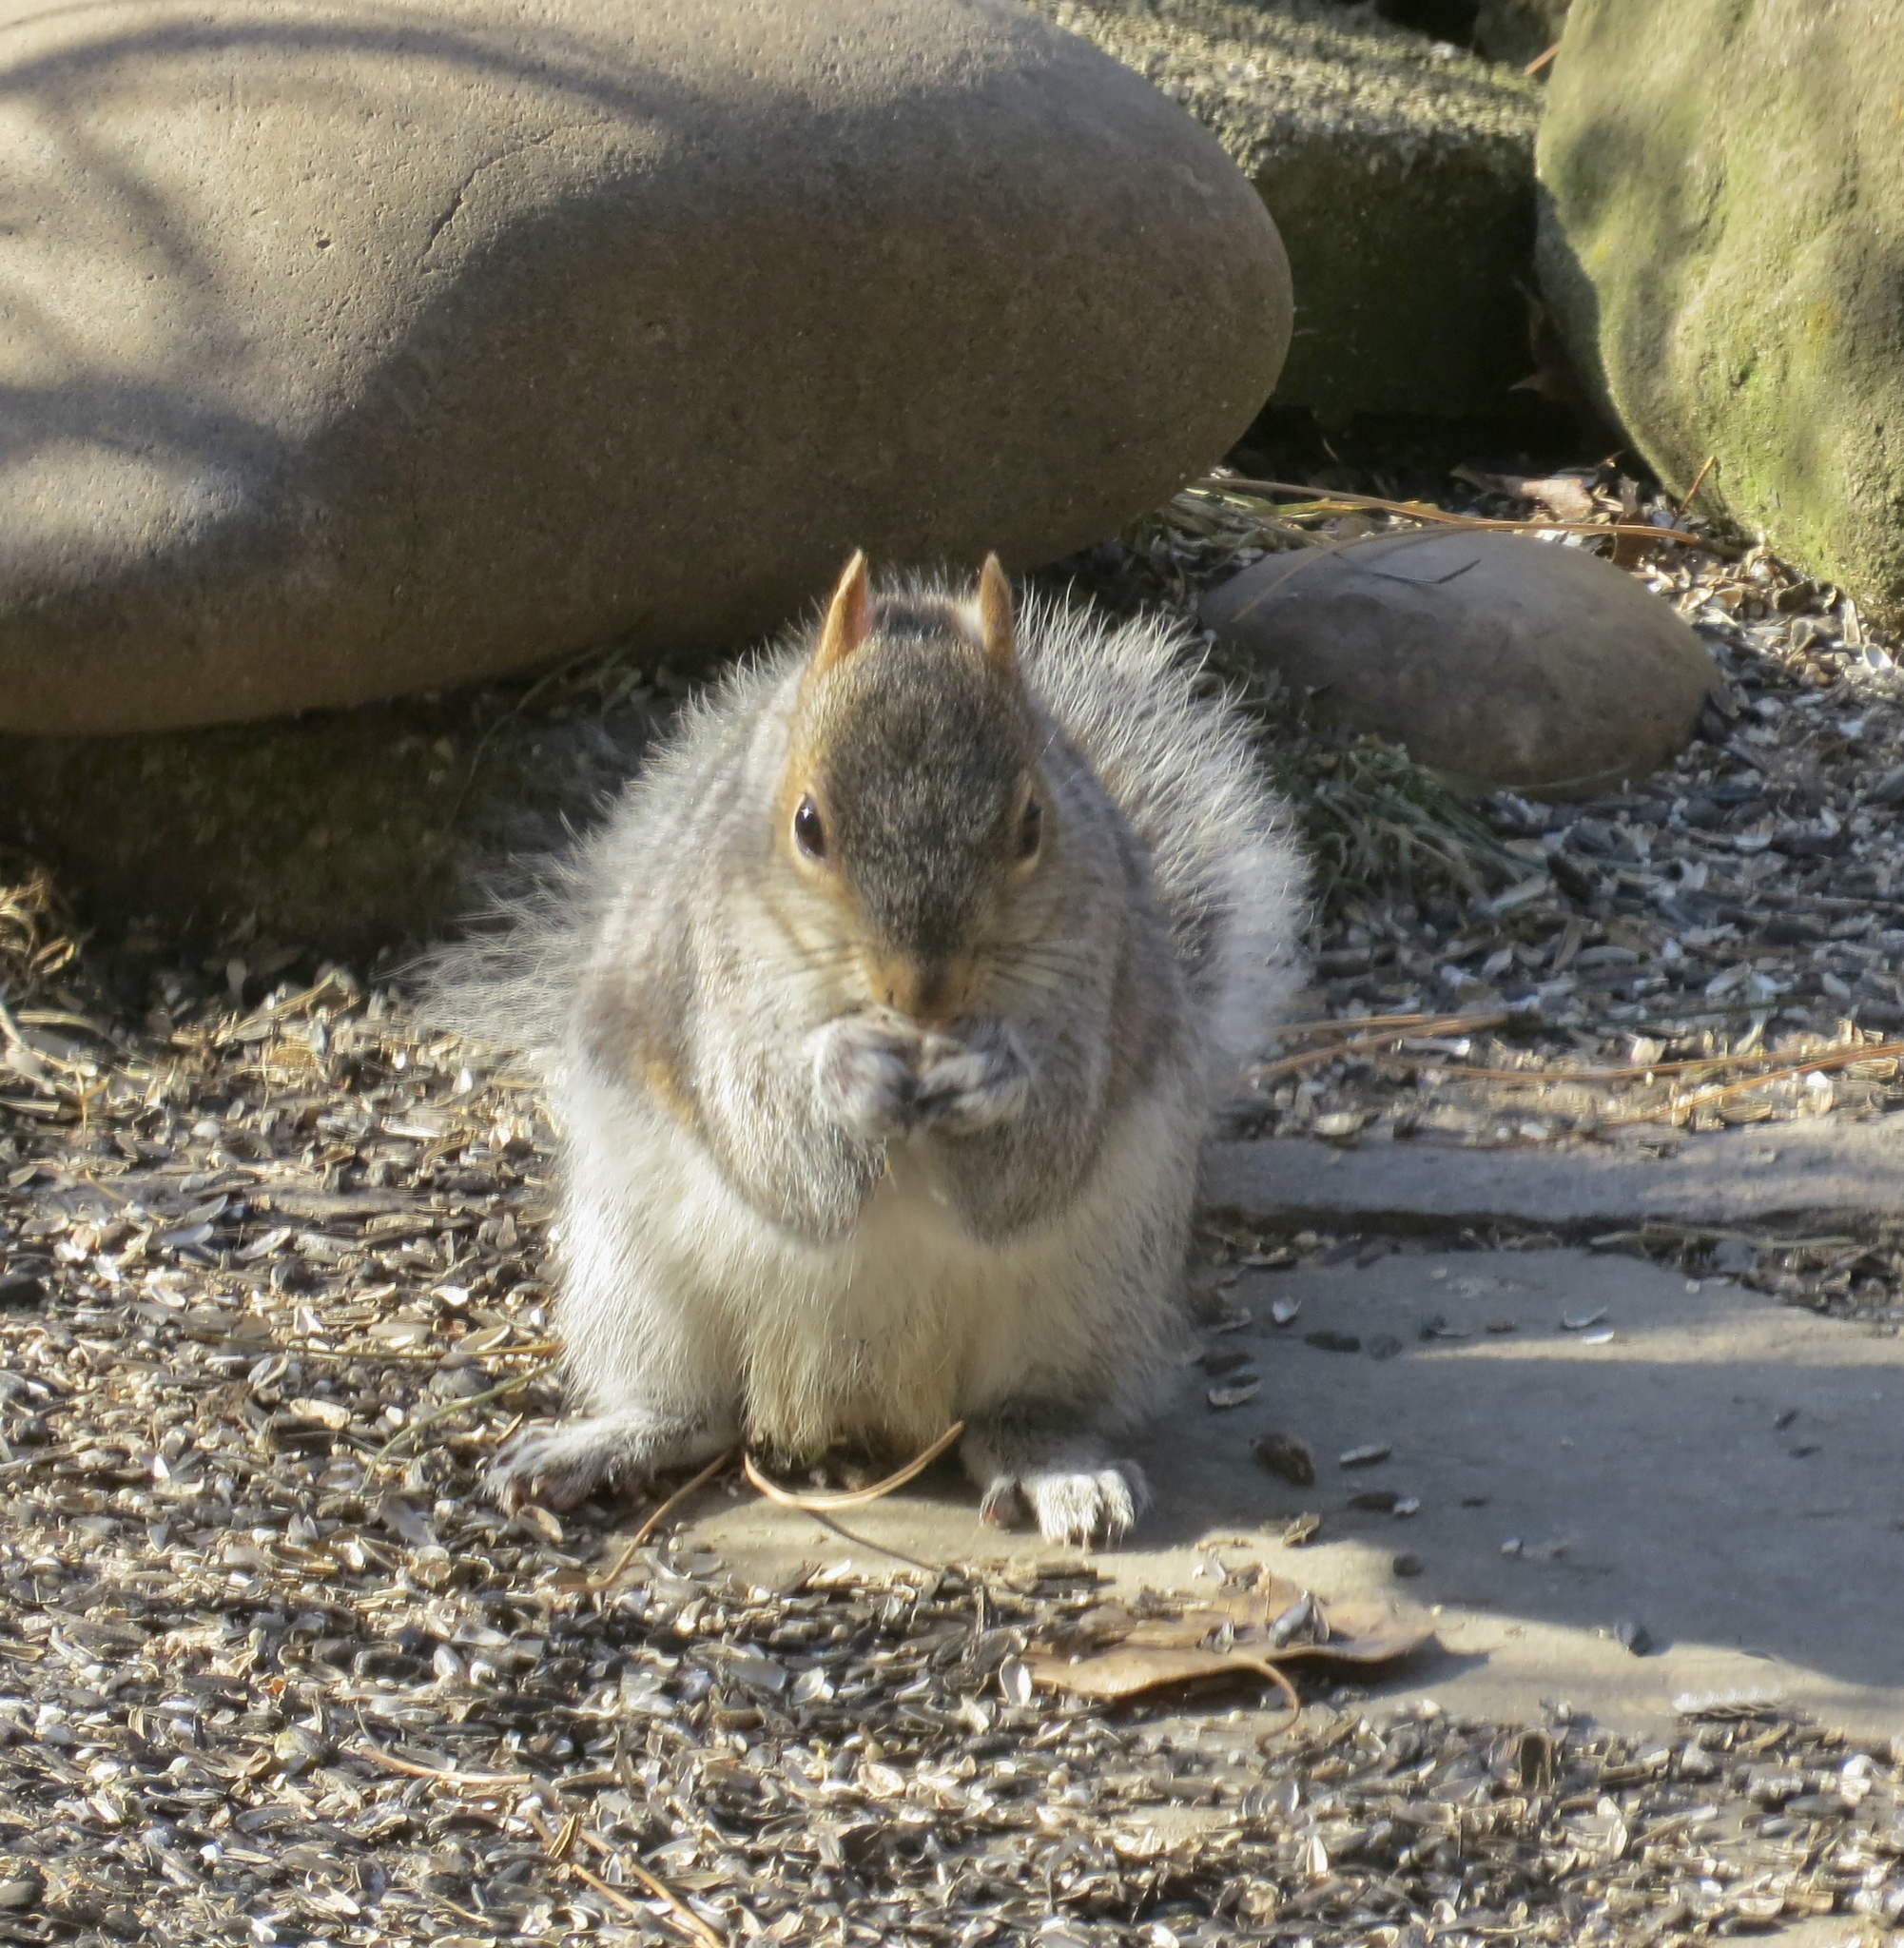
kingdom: Animalia
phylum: Chordata
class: Mammalia
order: Rodentia
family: Sciuridae
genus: Sciurus
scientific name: Sciurus carolinensis
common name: Eastern gray squirrel
